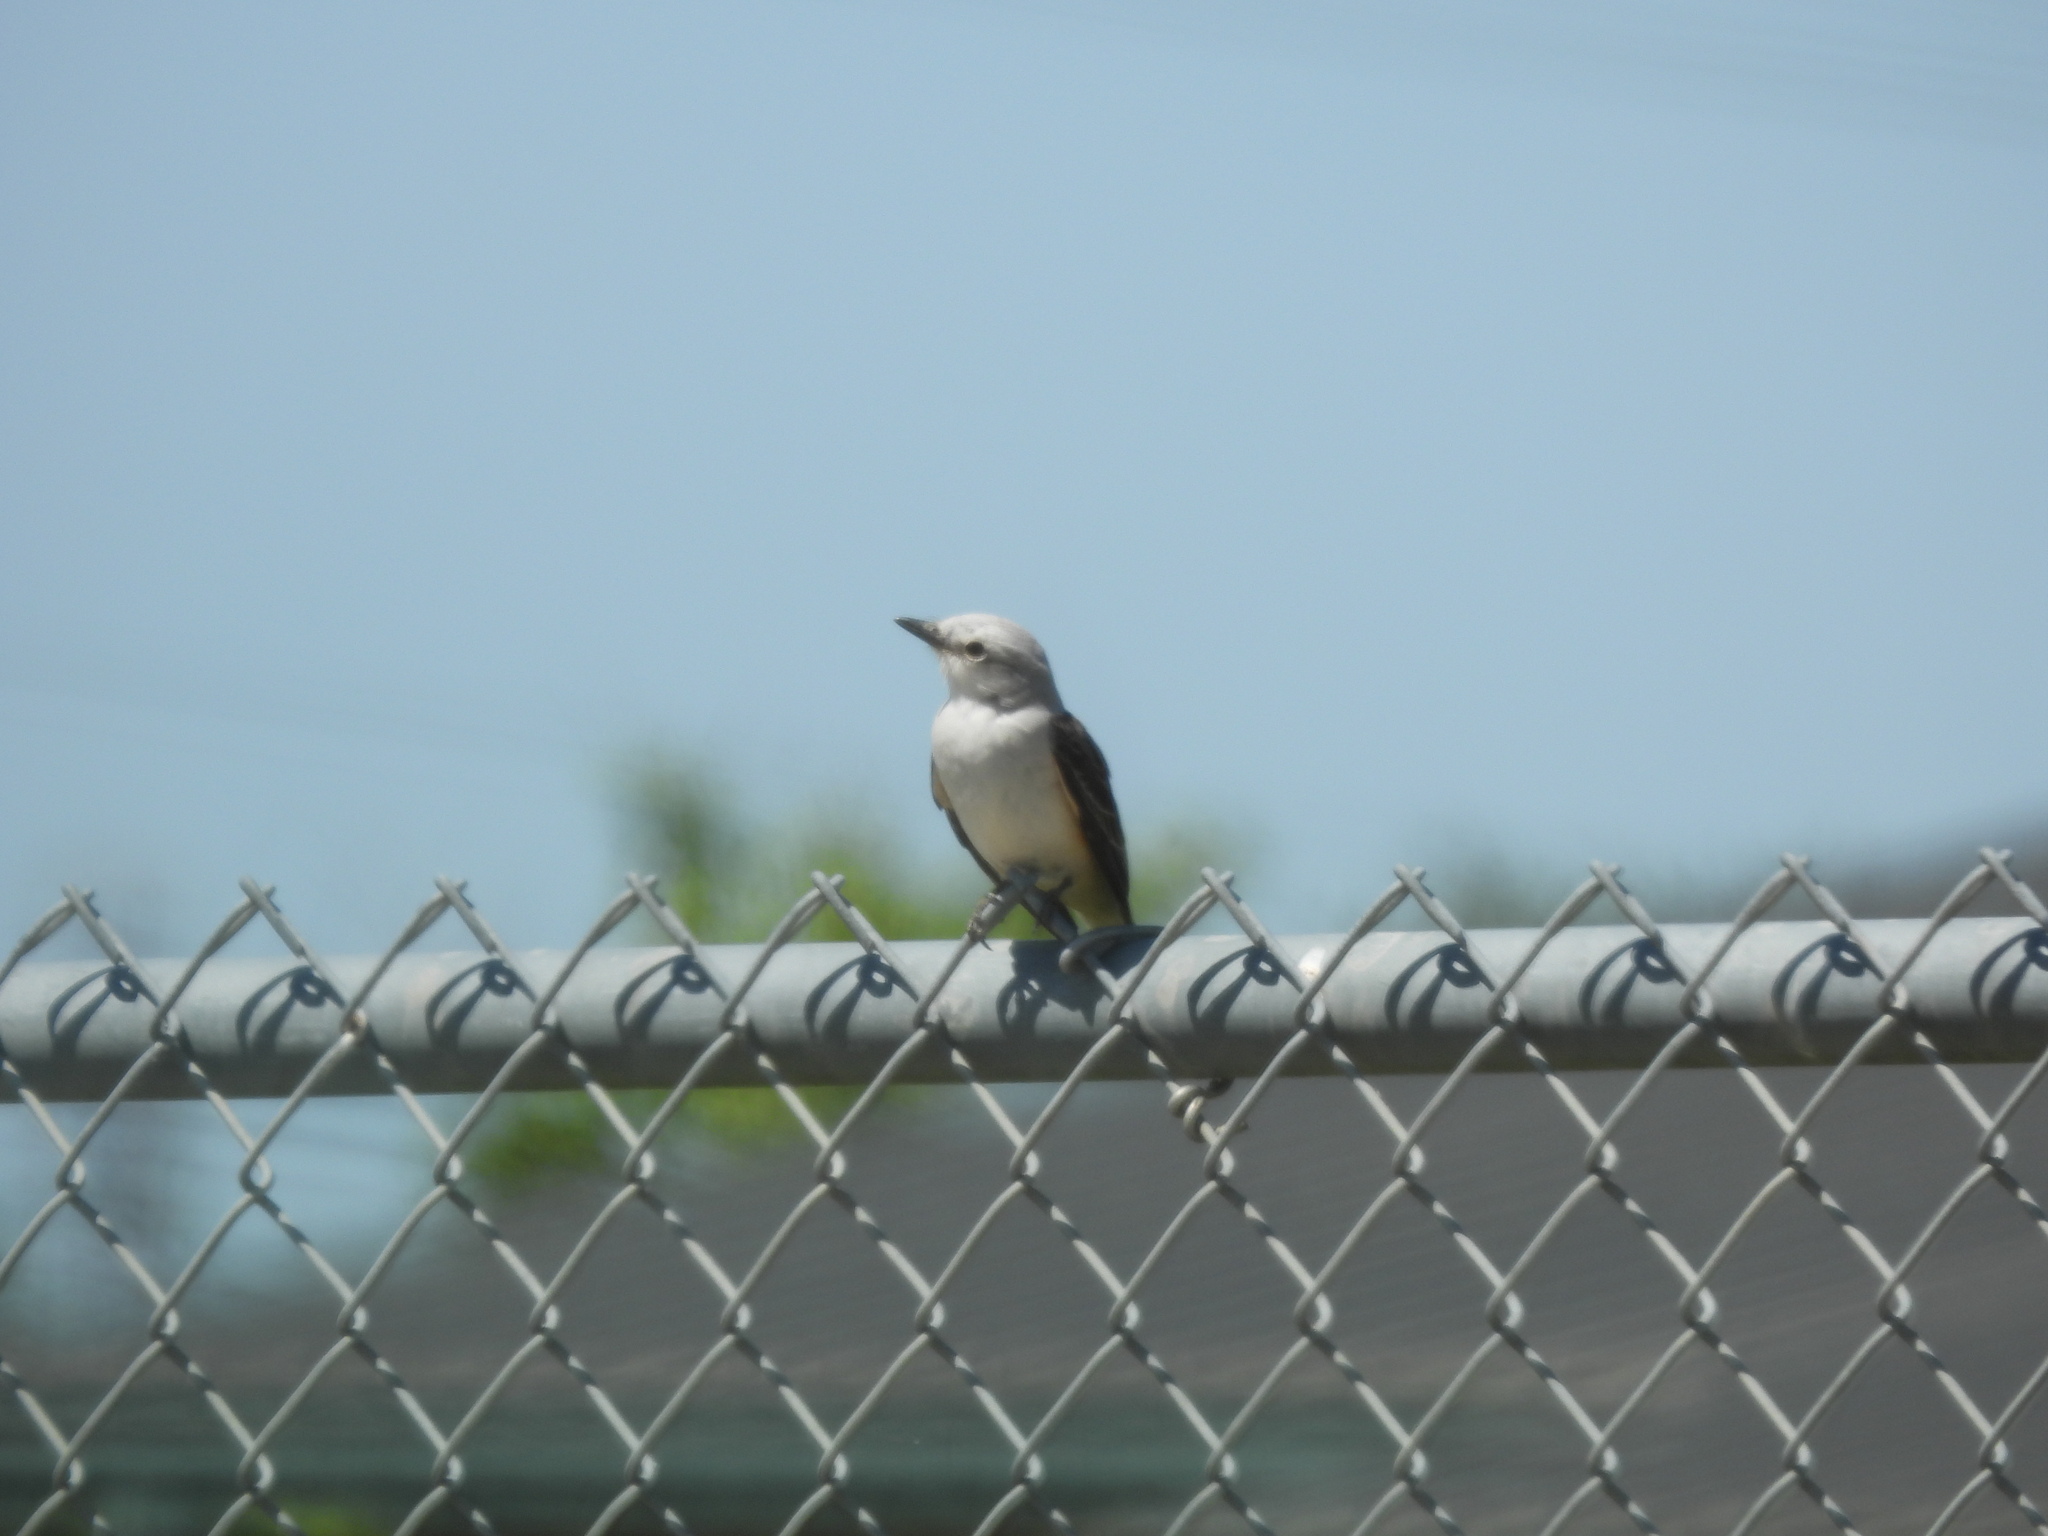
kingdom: Animalia
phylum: Chordata
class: Aves
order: Passeriformes
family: Tyrannidae
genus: Tyrannus
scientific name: Tyrannus forficatus
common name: Scissor-tailed flycatcher
